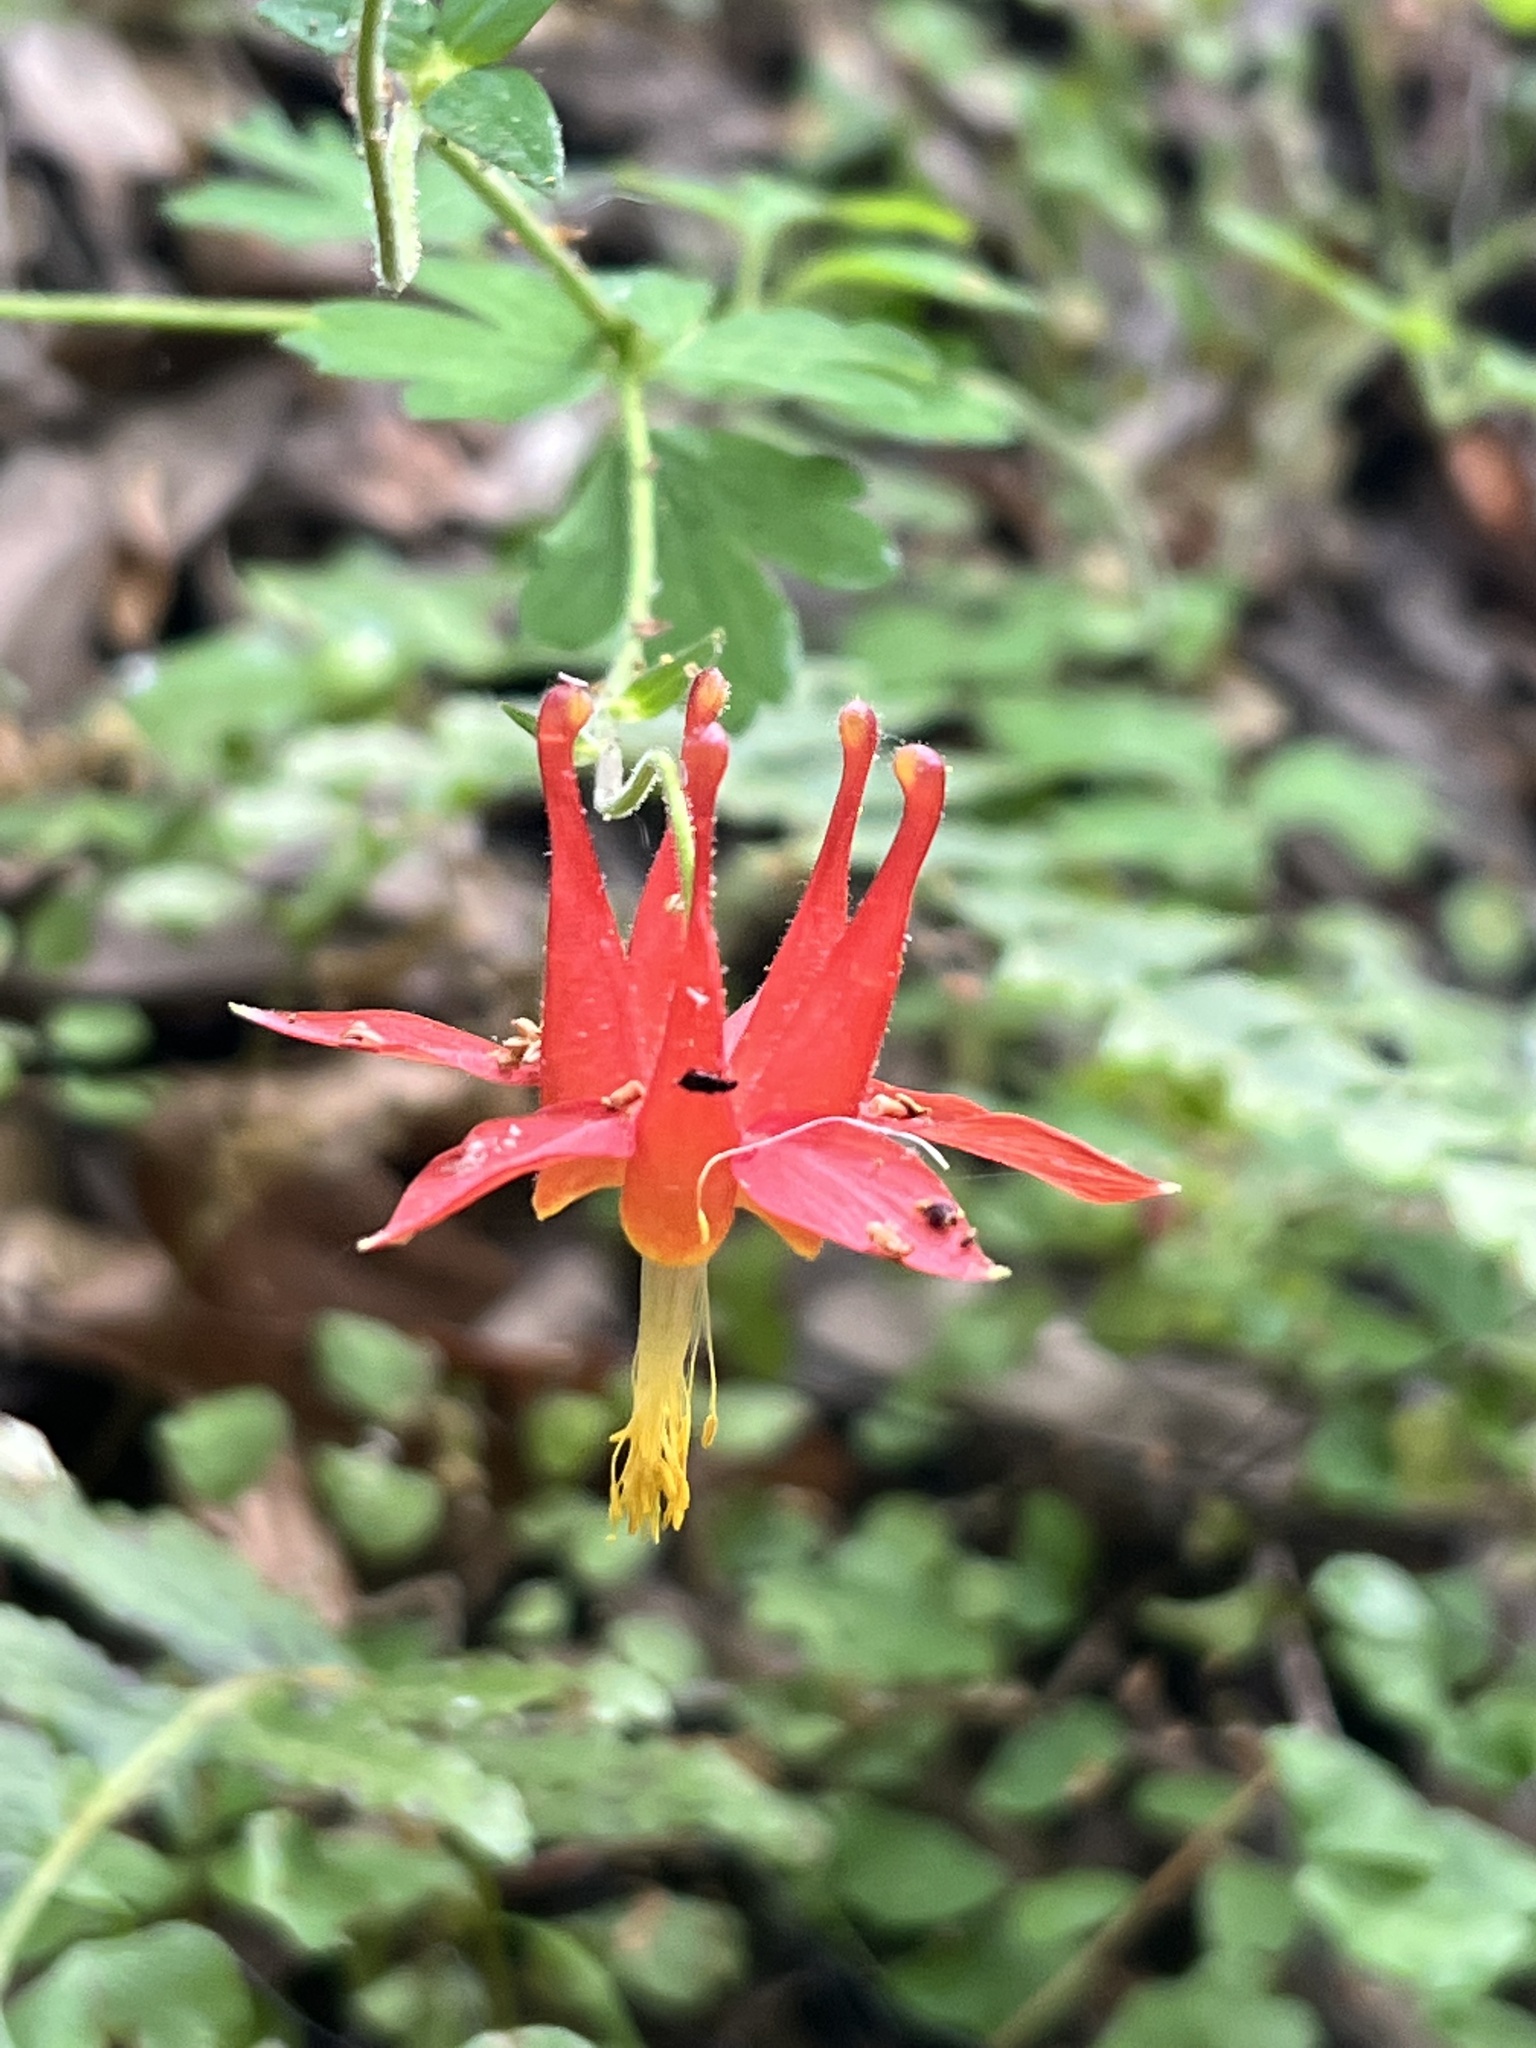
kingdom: Plantae
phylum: Tracheophyta
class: Magnoliopsida
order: Ranunculales
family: Ranunculaceae
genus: Aquilegia
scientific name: Aquilegia formosa
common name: Sitka columbine
